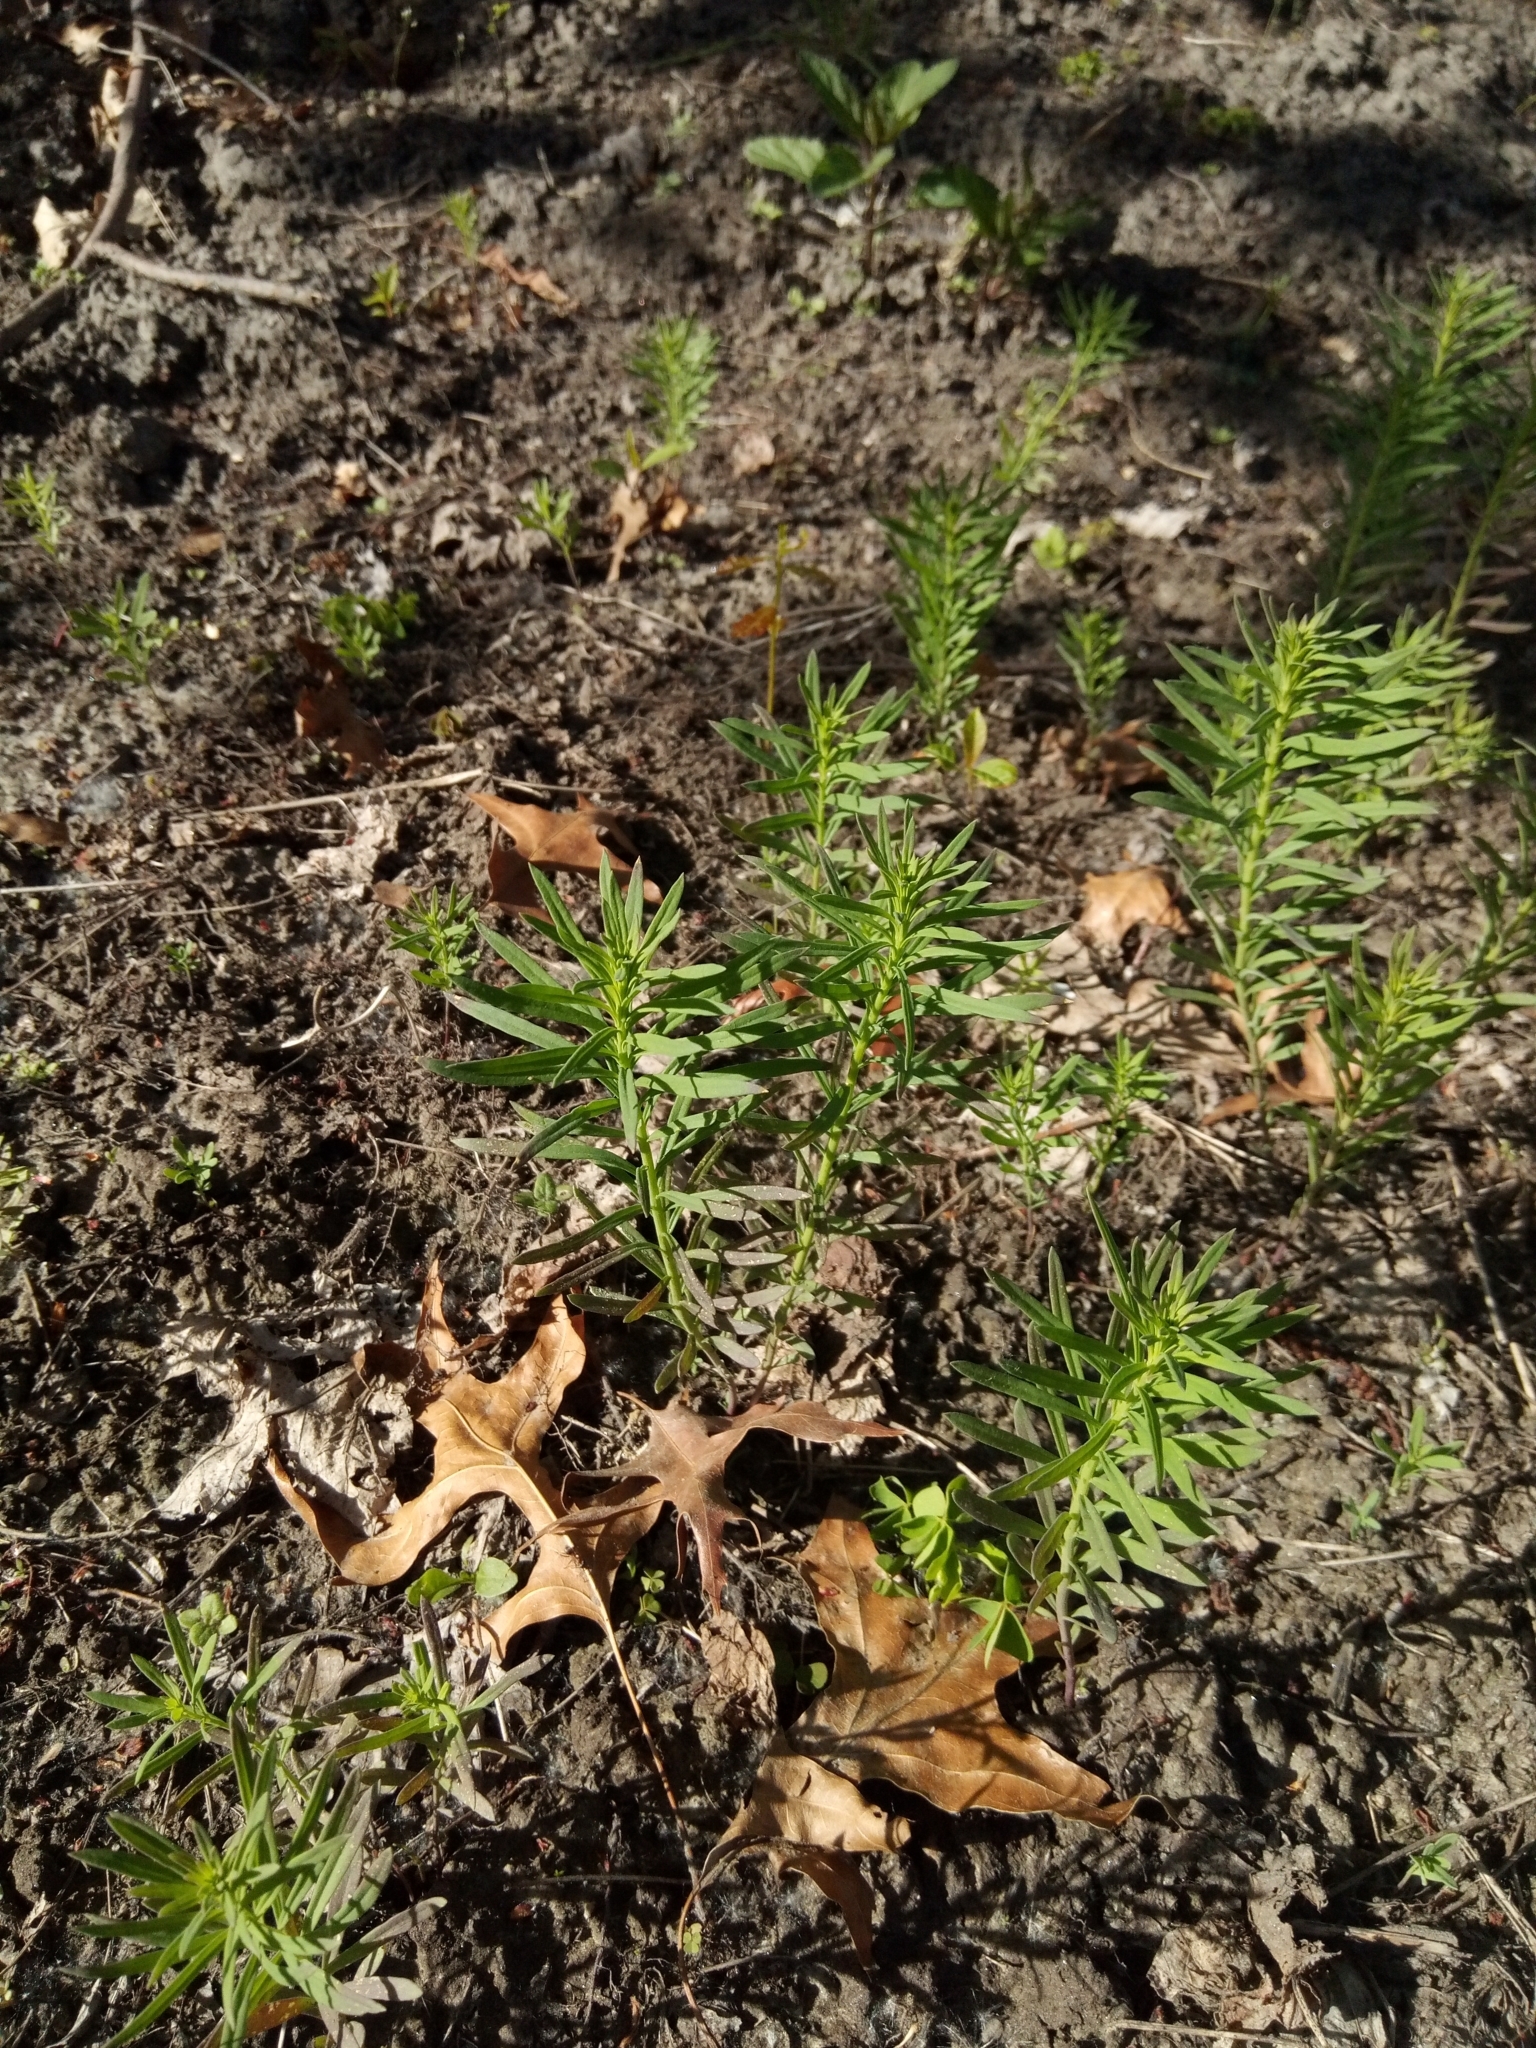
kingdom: Plantae
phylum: Tracheophyta
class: Magnoliopsida
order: Lamiales
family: Plantaginaceae
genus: Linaria
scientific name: Linaria vulgaris
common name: Butter and eggs
